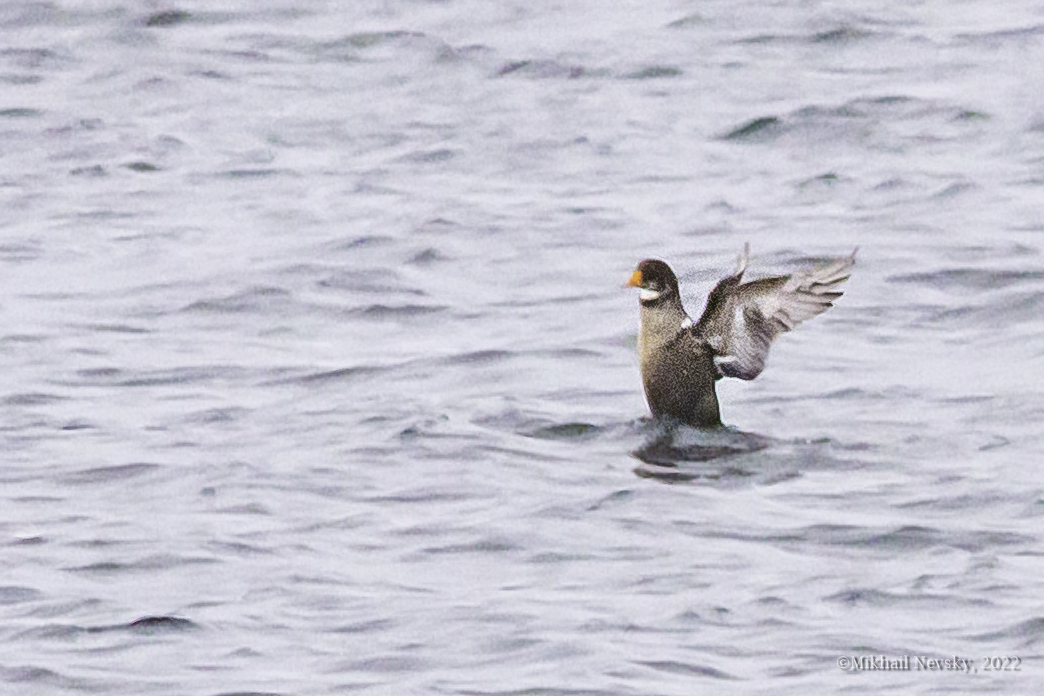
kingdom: Animalia
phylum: Chordata
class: Aves
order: Anseriformes
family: Anatidae
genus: Somateria
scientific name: Somateria spectabilis
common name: King eider
